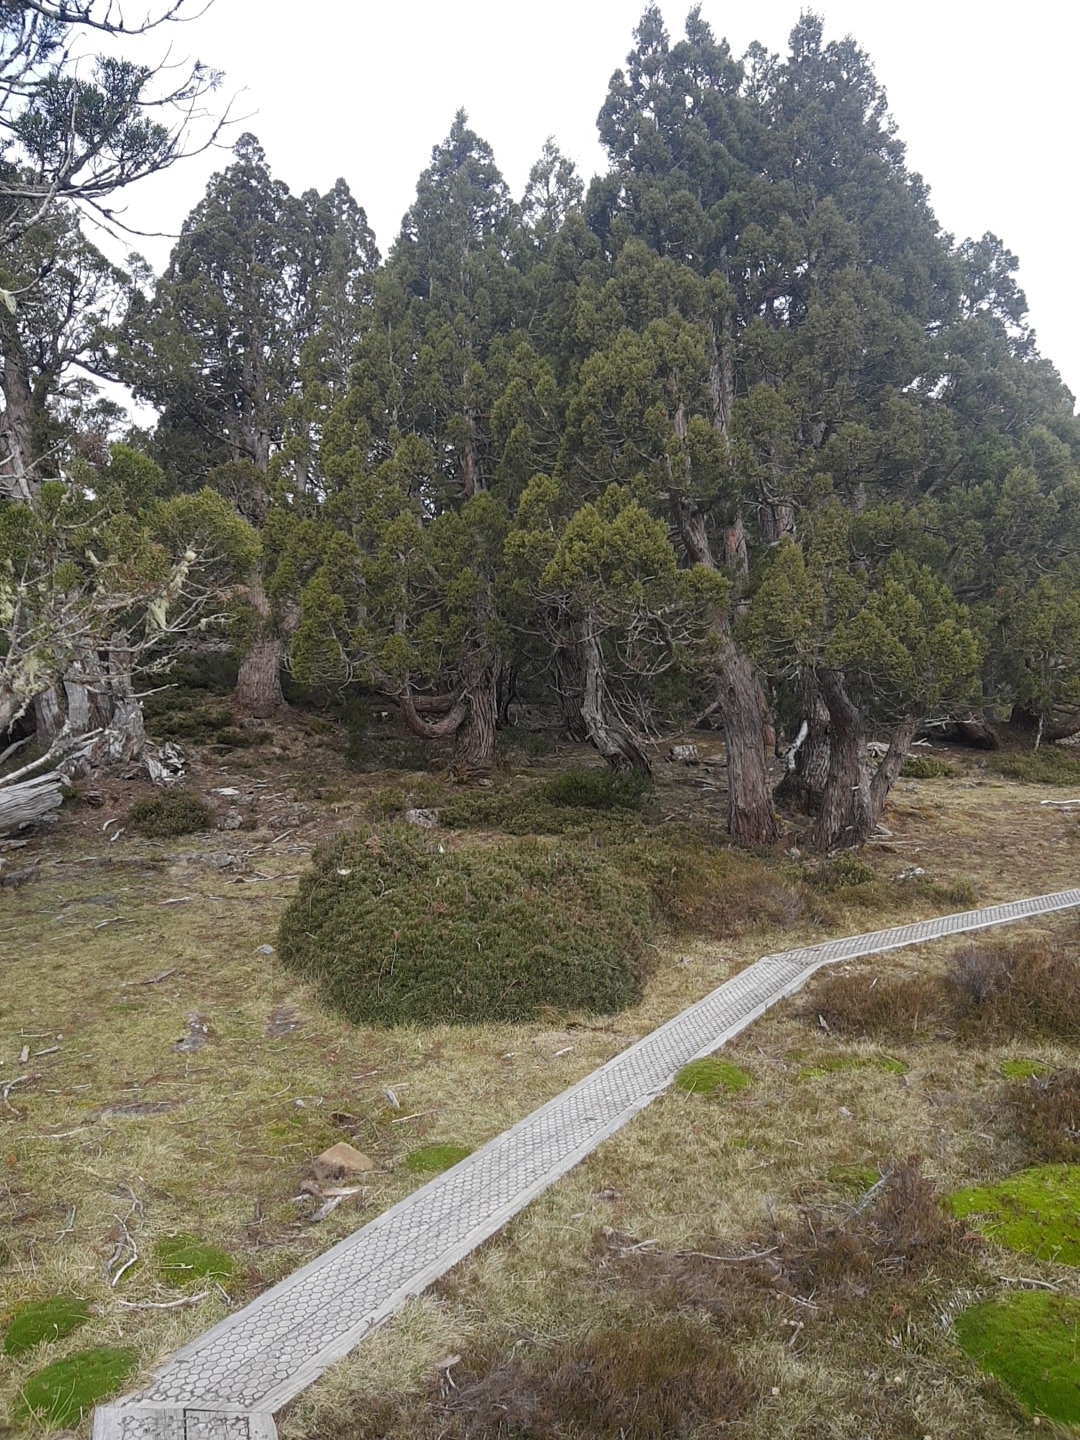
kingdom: Plantae
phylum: Tracheophyta
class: Pinopsida
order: Pinales
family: Cupressaceae
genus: Athrotaxis
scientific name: Athrotaxis cupressoides
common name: Tasmanian pencil pine
